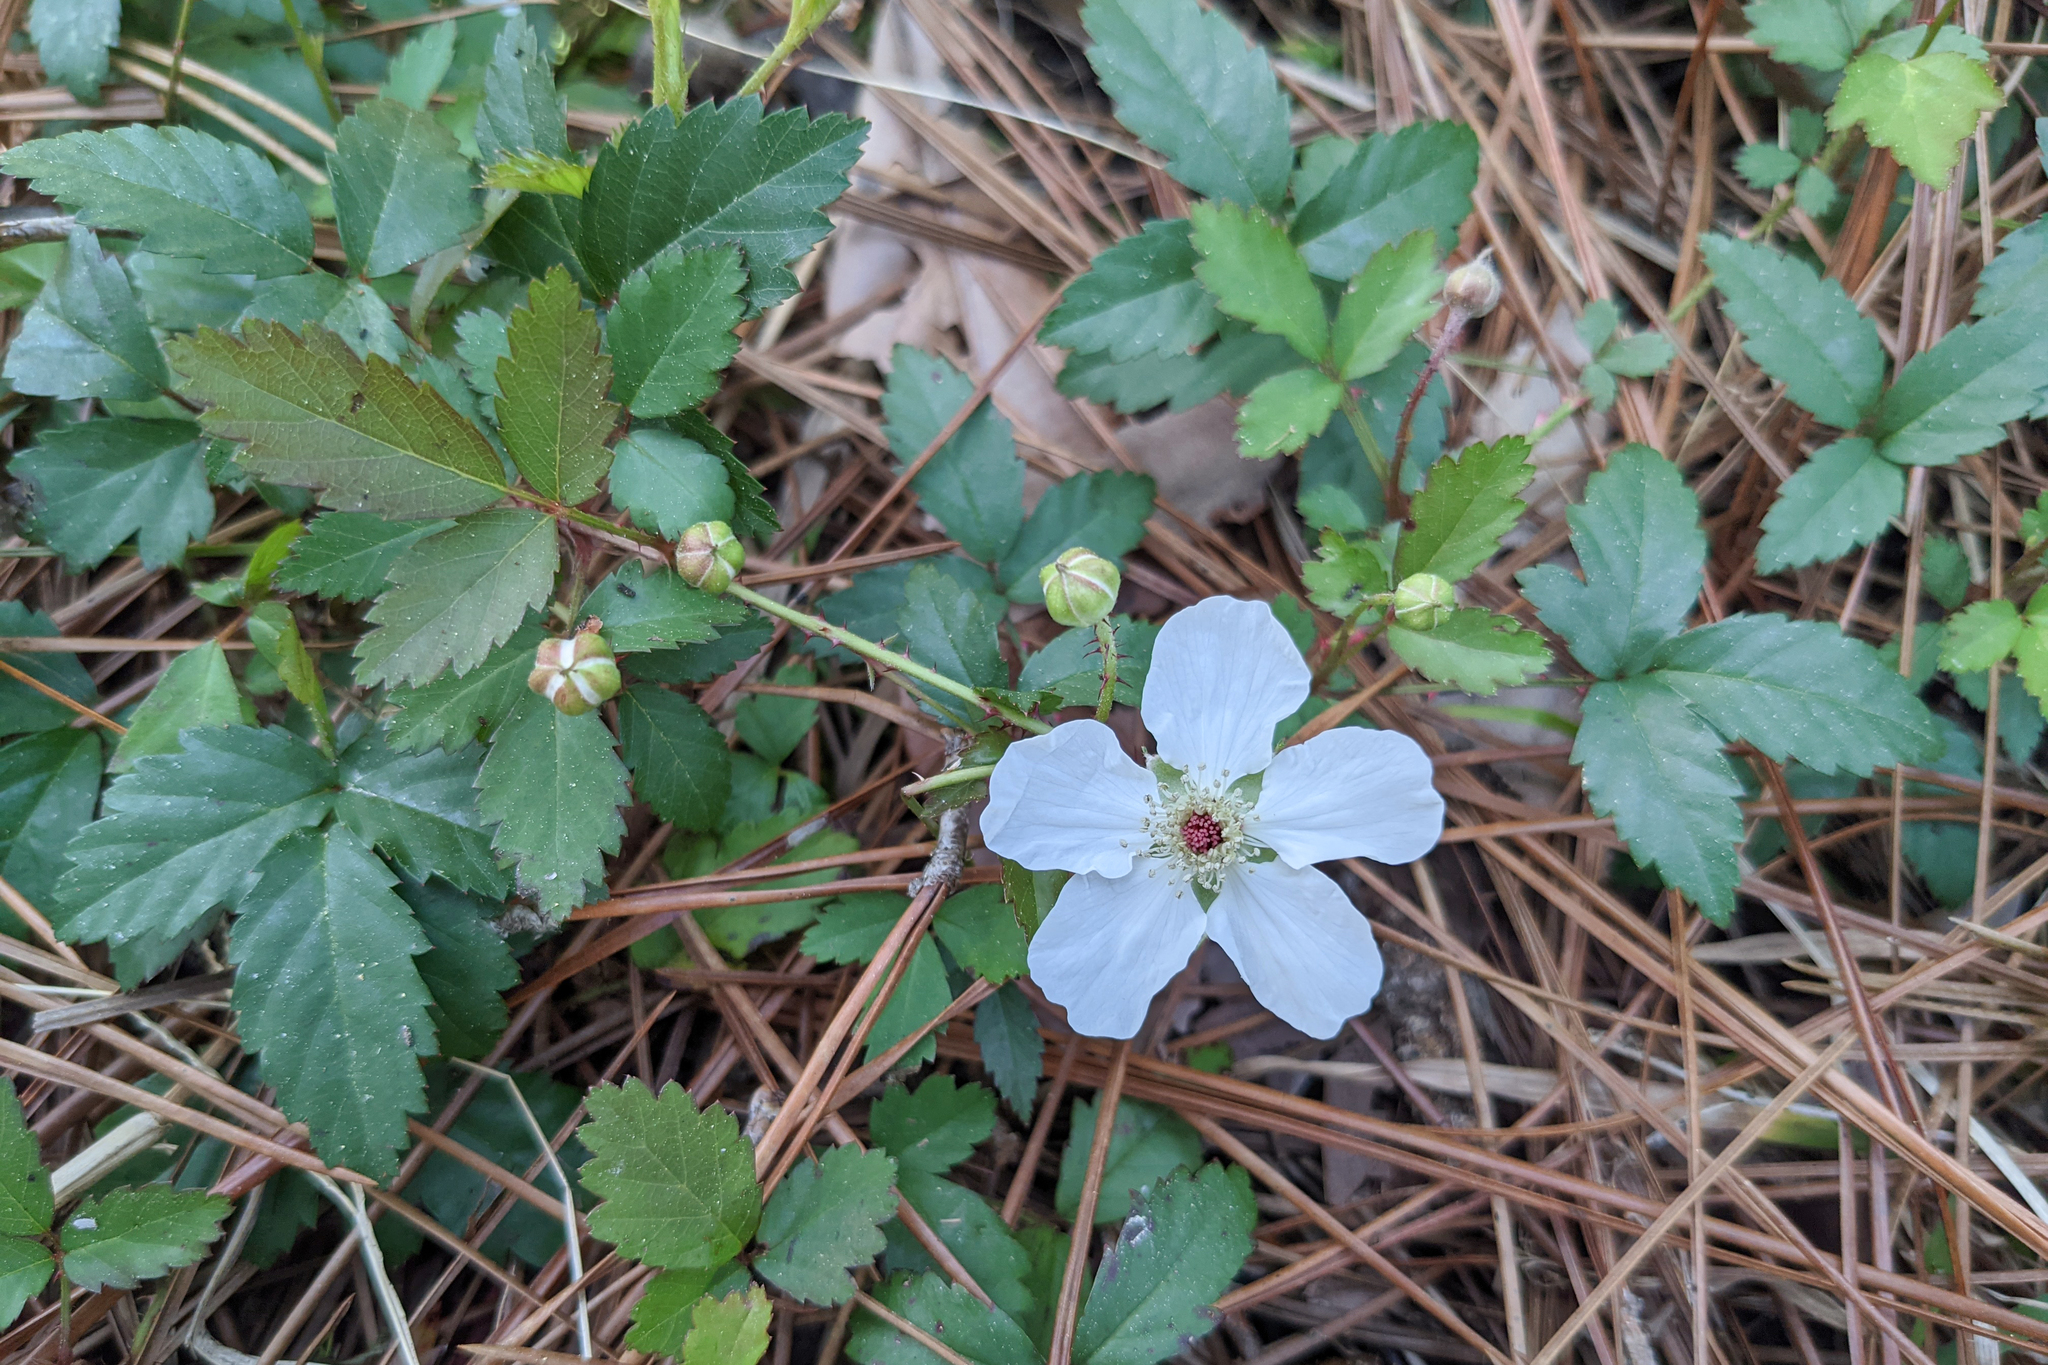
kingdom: Plantae
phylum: Tracheophyta
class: Magnoliopsida
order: Rosales
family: Rosaceae
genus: Rubus
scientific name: Rubus trivialis
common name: Southern dewberry
